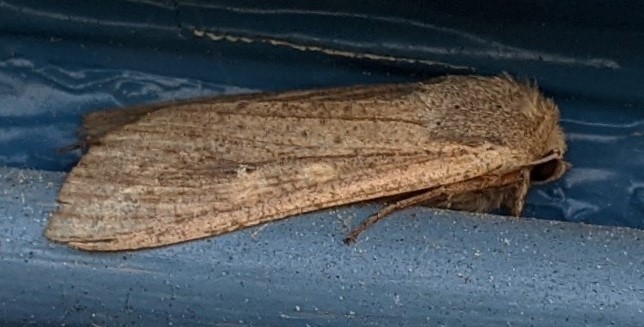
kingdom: Animalia
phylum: Arthropoda
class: Insecta
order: Lepidoptera
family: Noctuidae
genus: Mythimna
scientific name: Mythimna unipuncta
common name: White-speck
